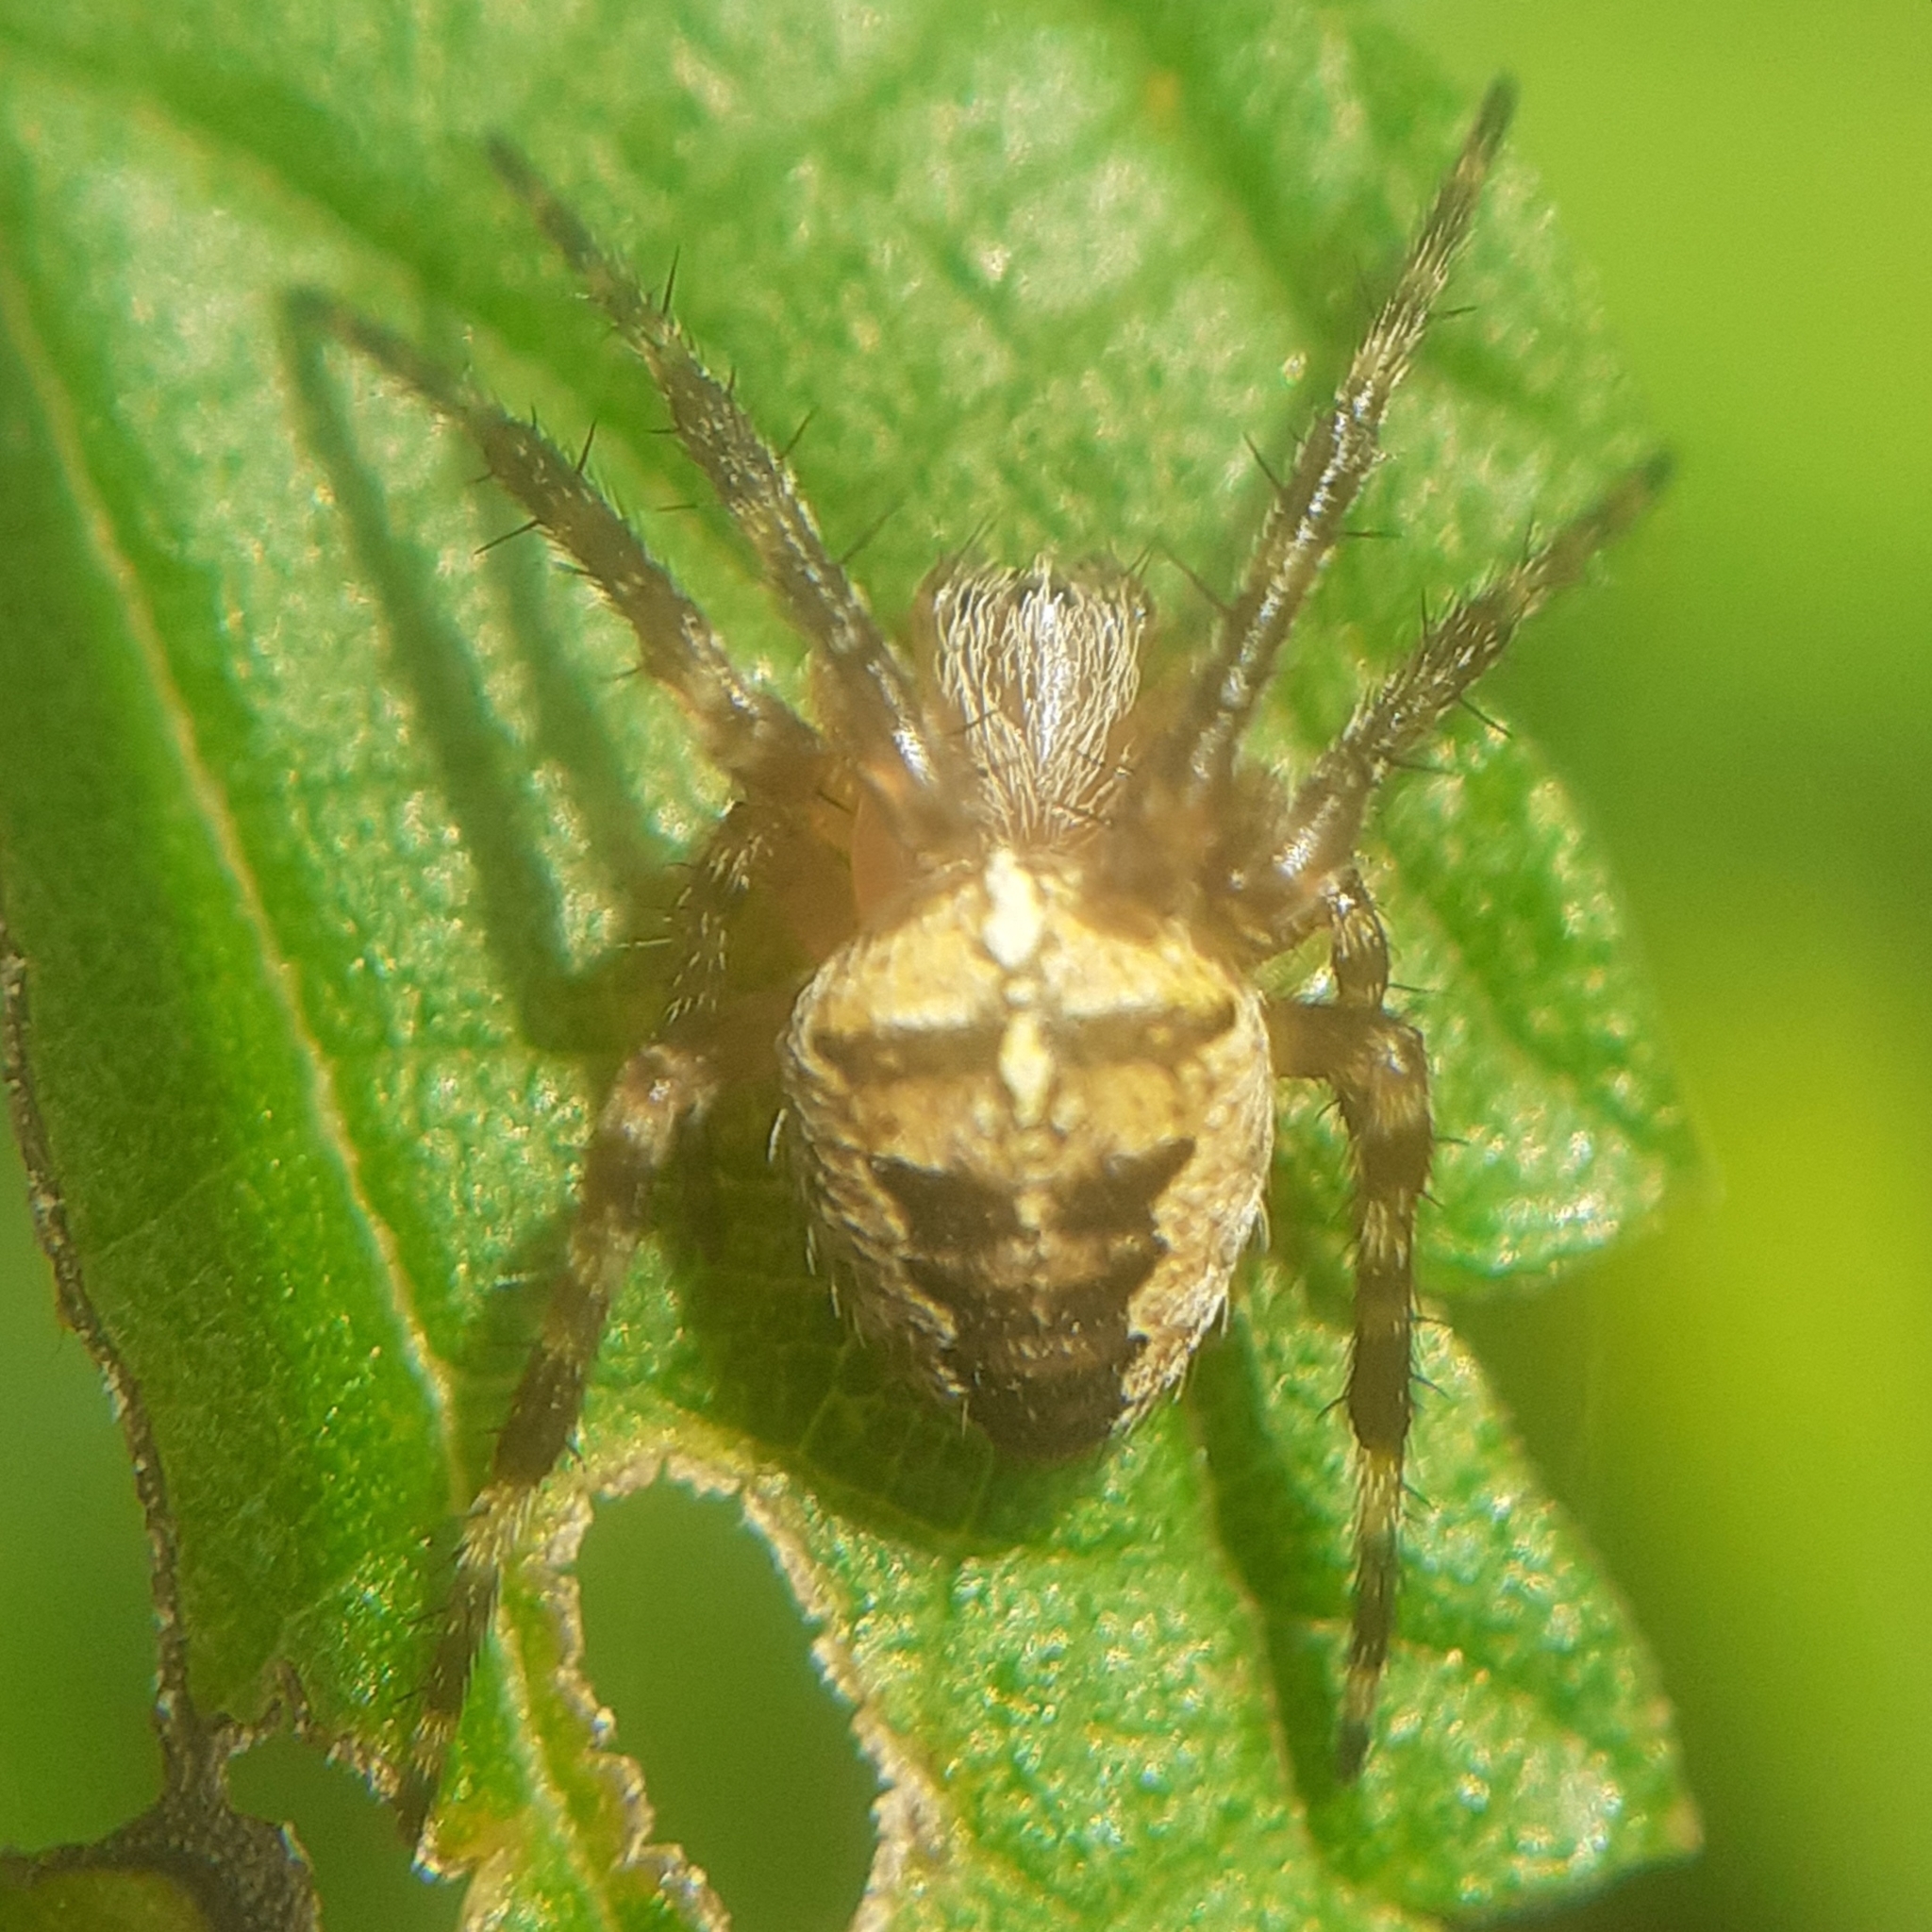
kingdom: Animalia
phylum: Arthropoda
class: Arachnida
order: Araneae
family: Araneidae
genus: Araneus
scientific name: Araneus diadematus
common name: Cross orbweaver
